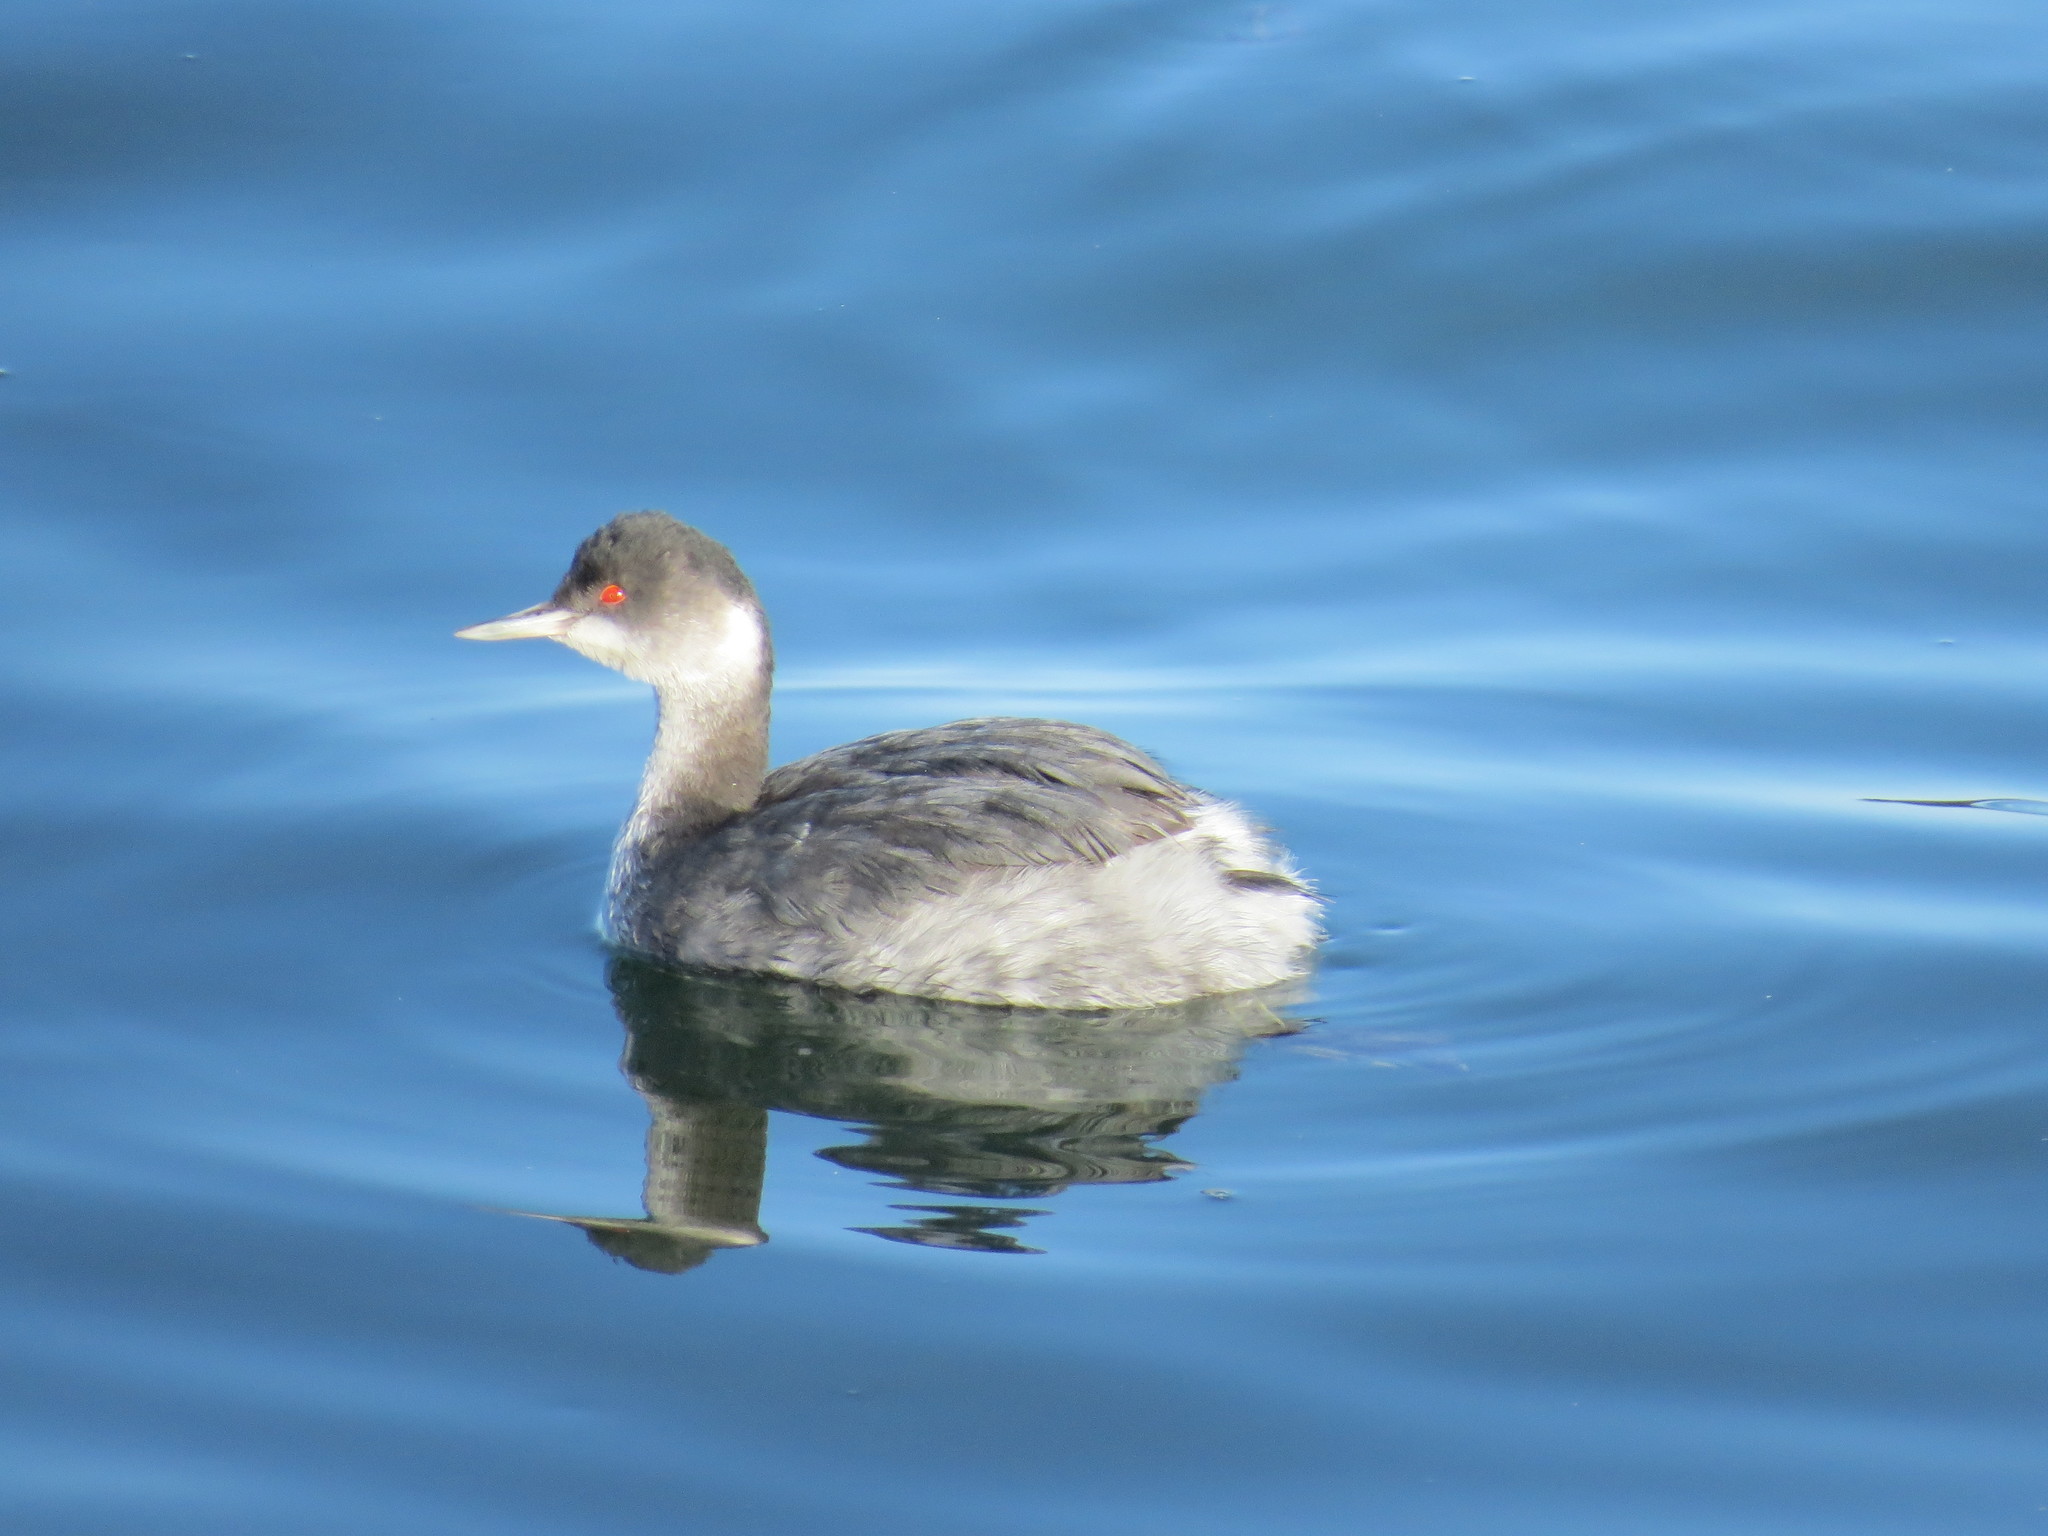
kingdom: Animalia
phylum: Chordata
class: Aves
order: Podicipediformes
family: Podicipedidae
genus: Podiceps
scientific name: Podiceps nigricollis
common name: Black-necked grebe
